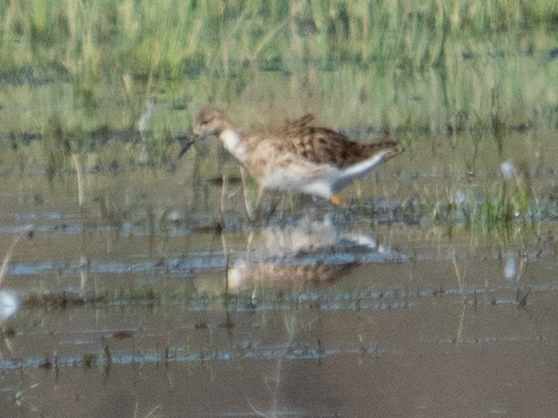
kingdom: Animalia
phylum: Chordata
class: Aves
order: Charadriiformes
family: Scolopacidae
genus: Calidris
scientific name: Calidris pugnax
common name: Ruff
